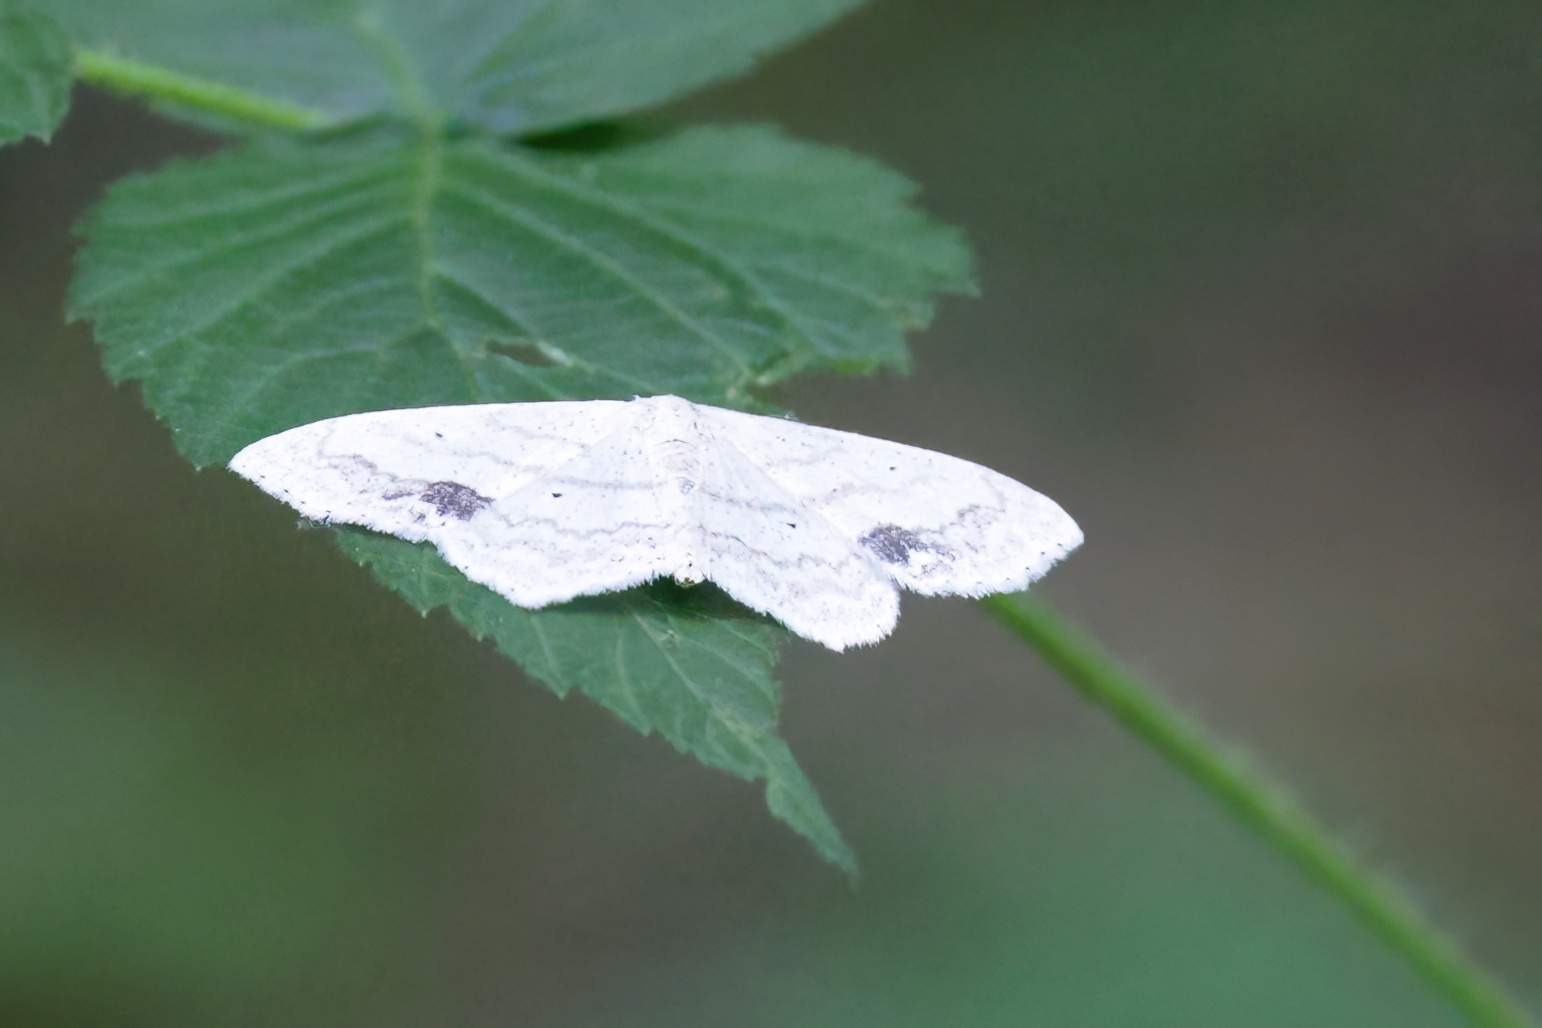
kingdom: Animalia
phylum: Arthropoda
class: Insecta
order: Lepidoptera
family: Geometridae
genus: Scopula
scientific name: Scopula limboundata
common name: Large lace border
